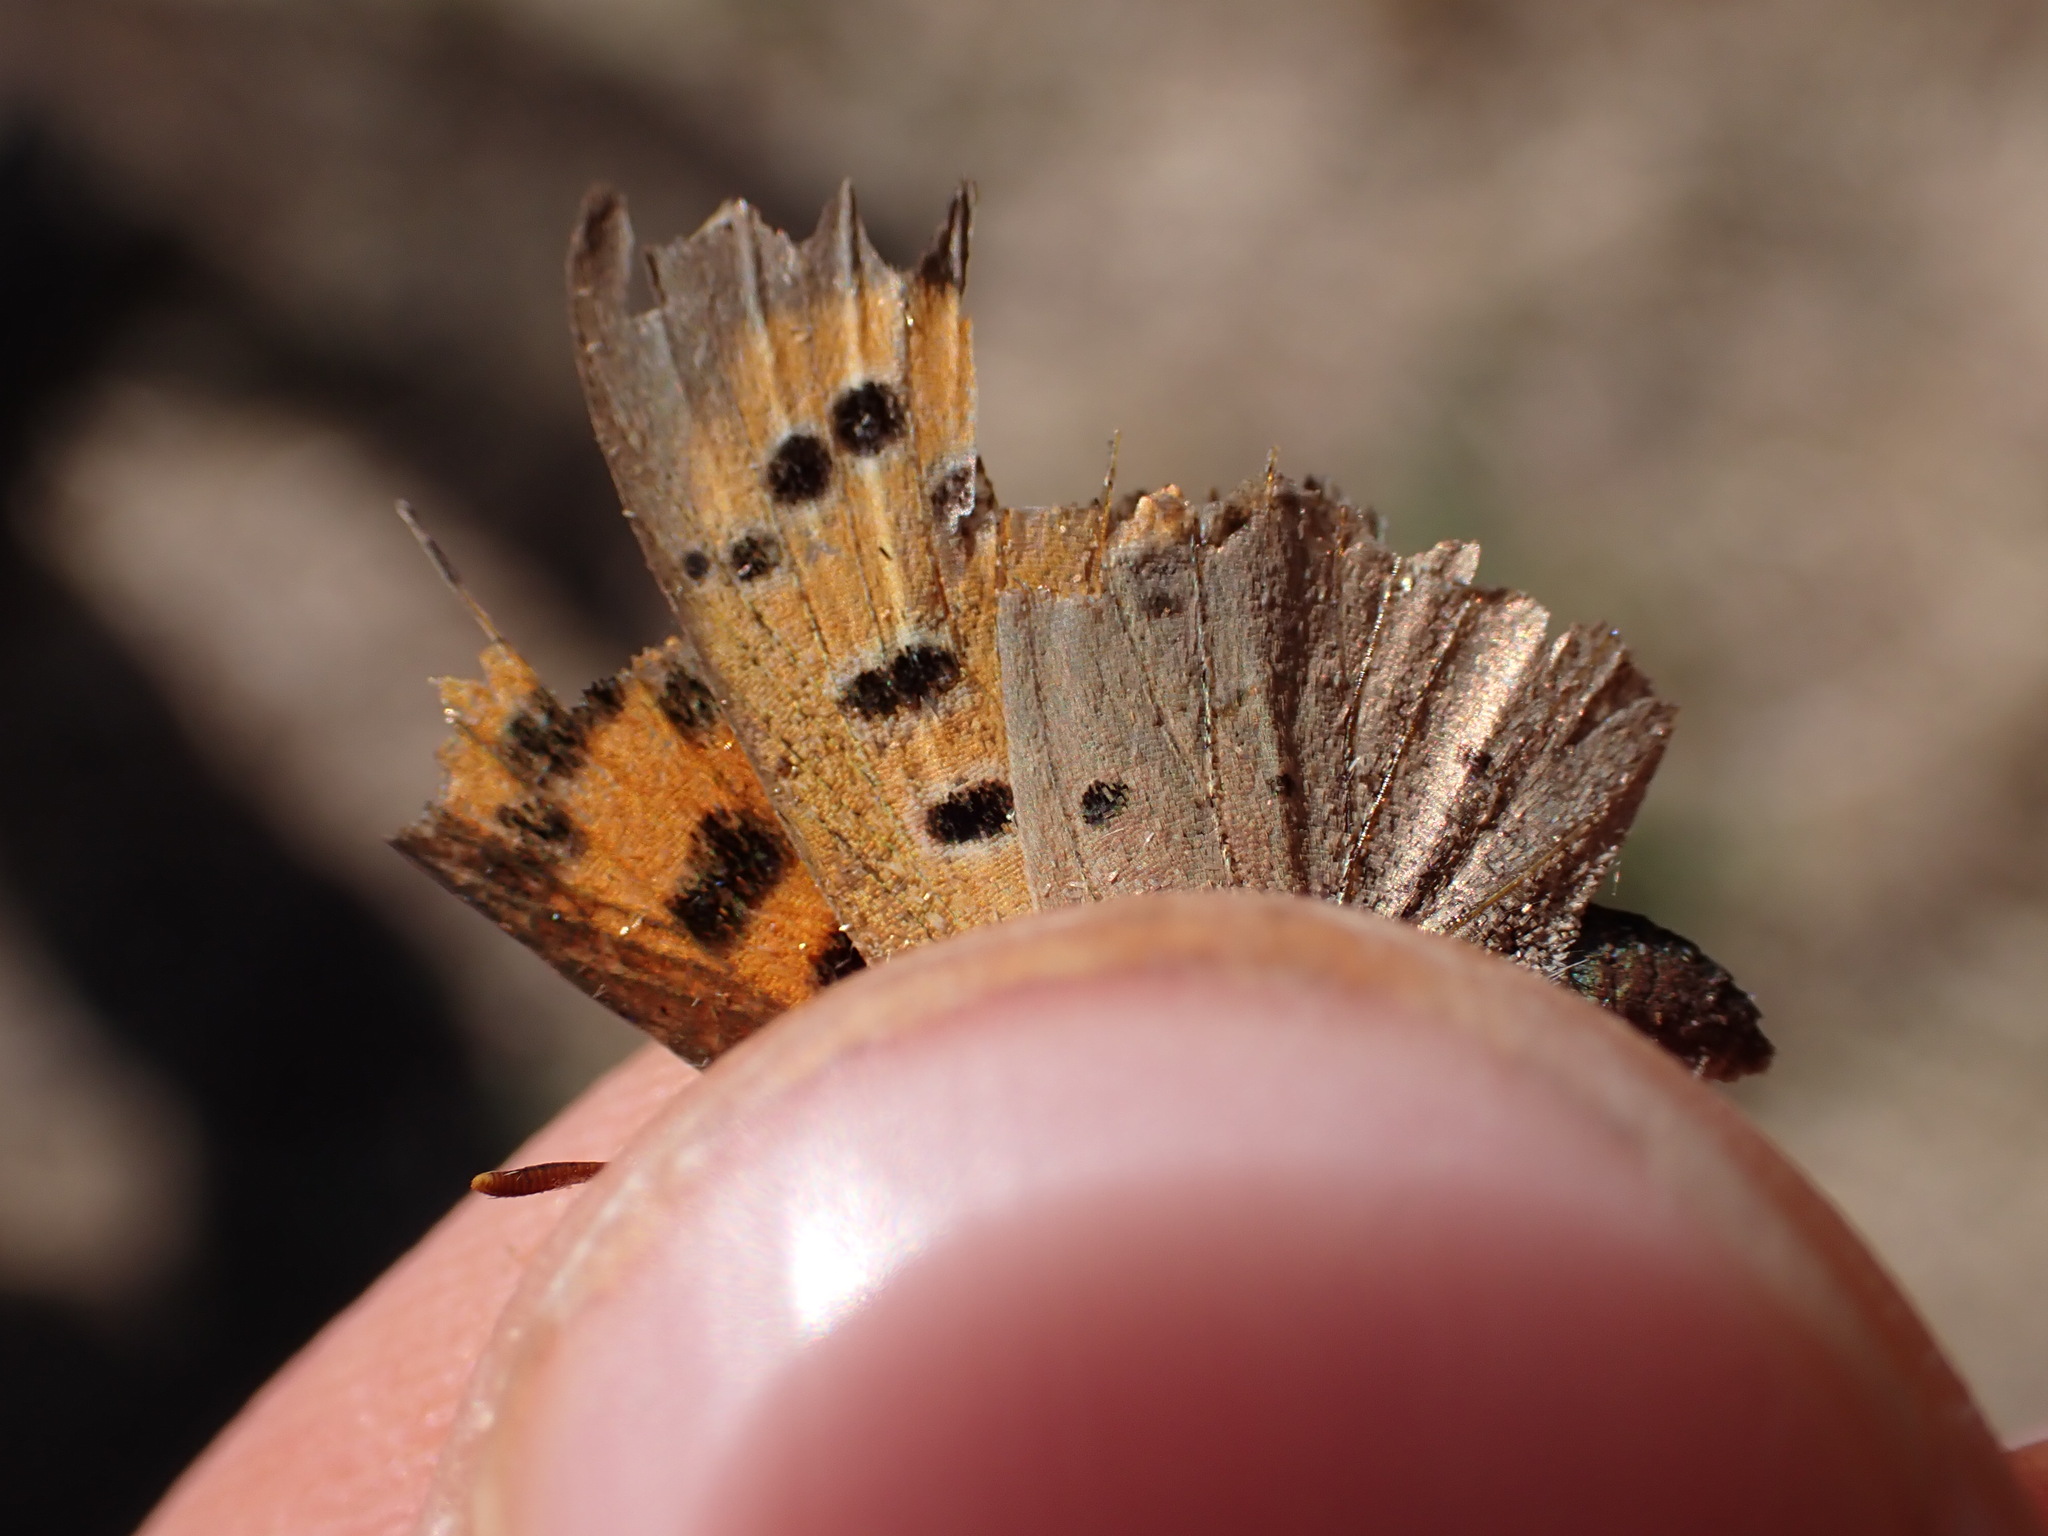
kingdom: Animalia
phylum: Arthropoda
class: Insecta
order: Lepidoptera
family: Lycaenidae
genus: Lycaena
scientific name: Lycaena phlaeas
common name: Small copper
